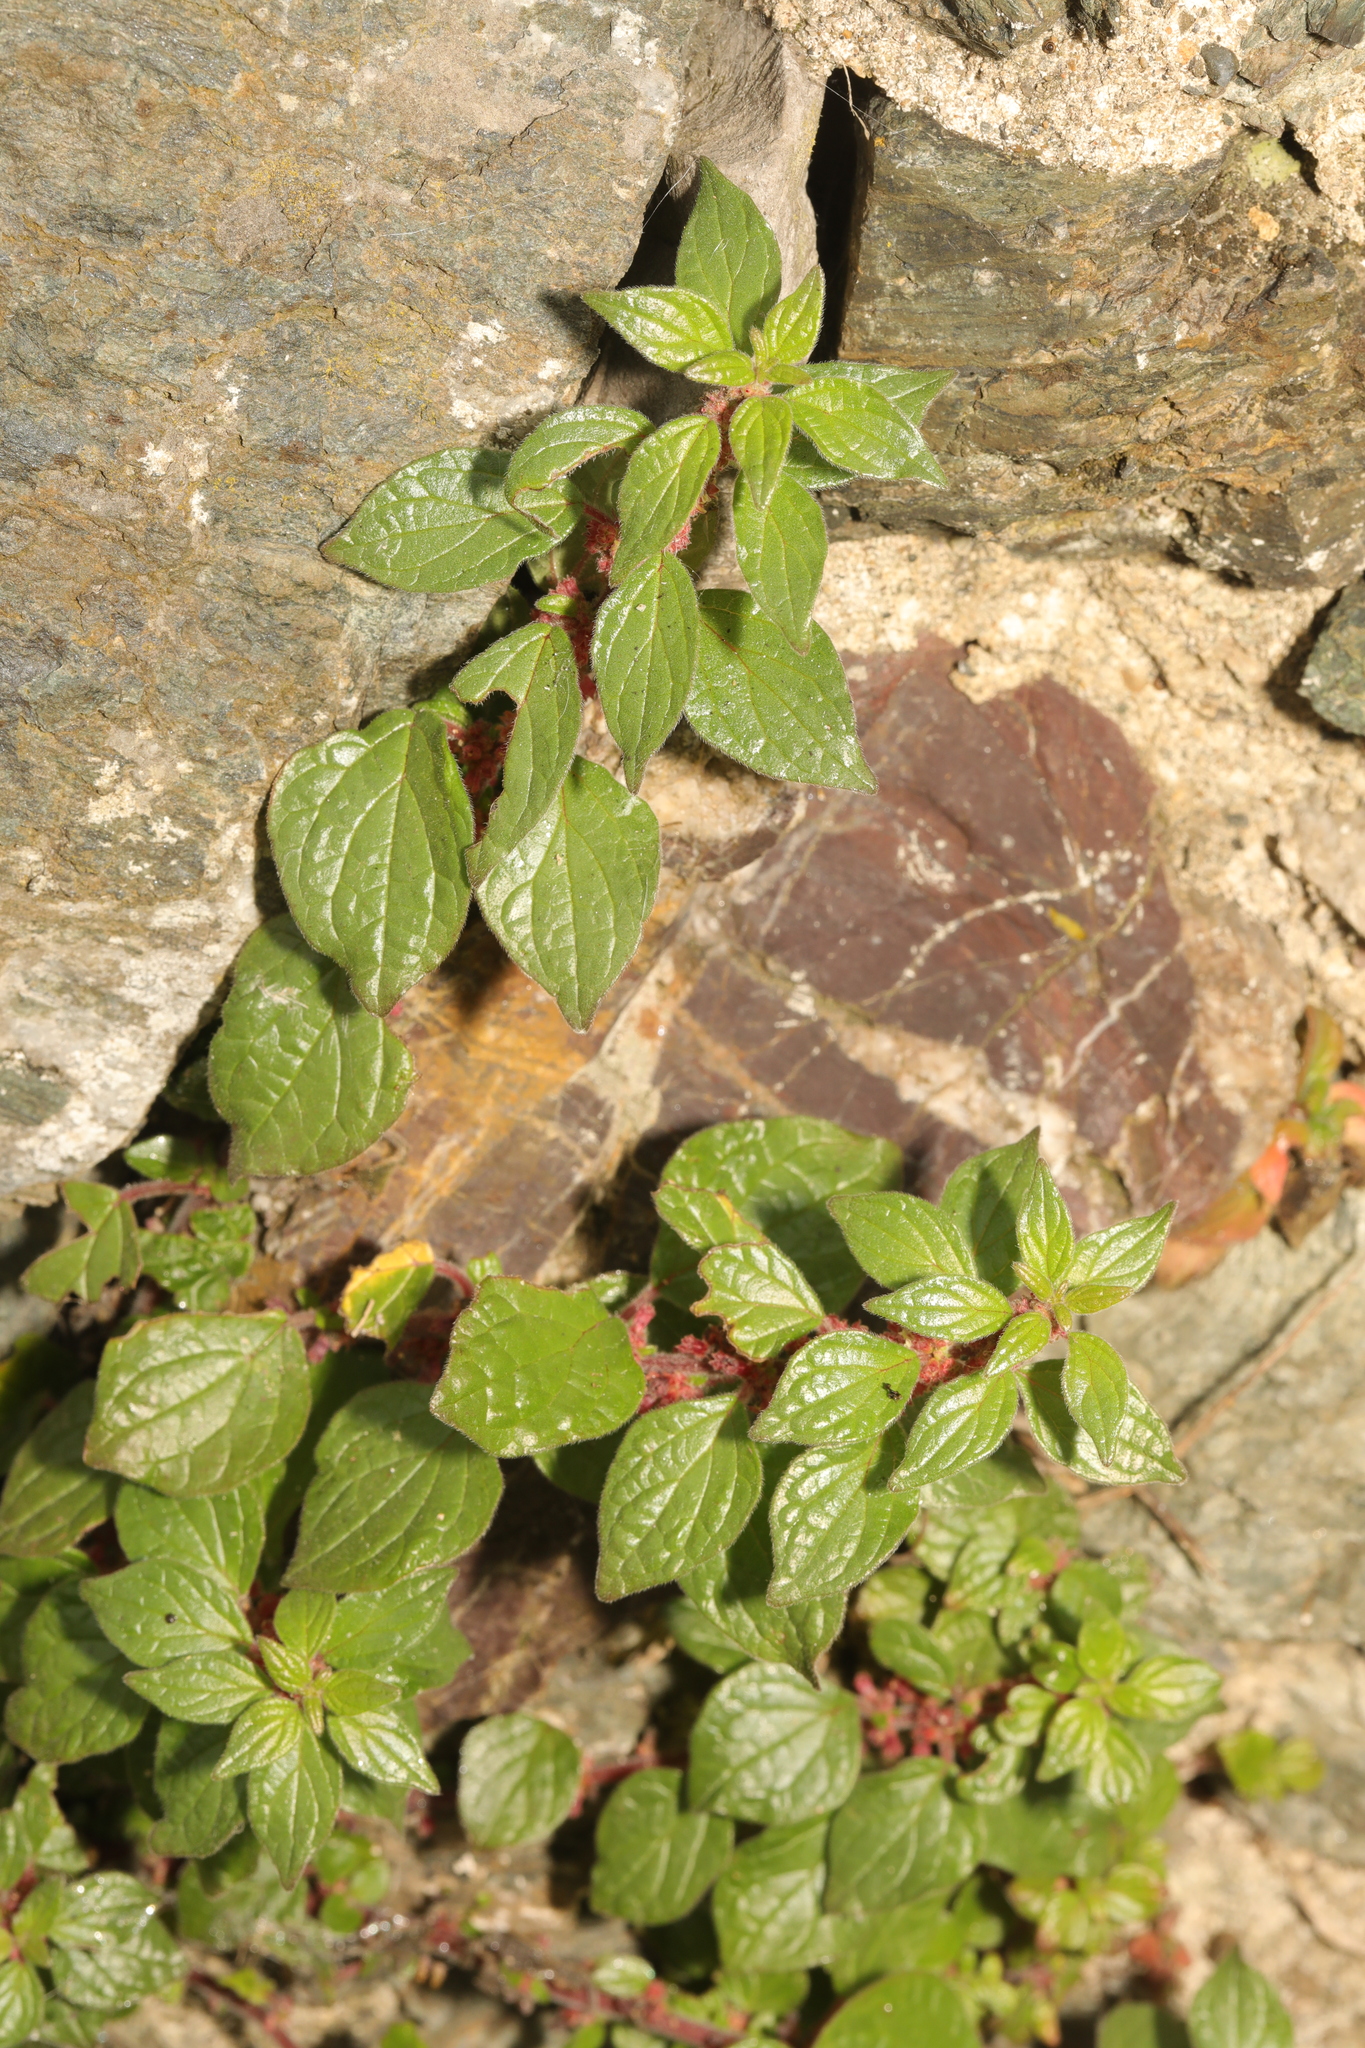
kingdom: Plantae
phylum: Tracheophyta
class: Magnoliopsida
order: Rosales
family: Urticaceae
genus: Parietaria
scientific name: Parietaria judaica
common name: Pellitory-of-the-wall
